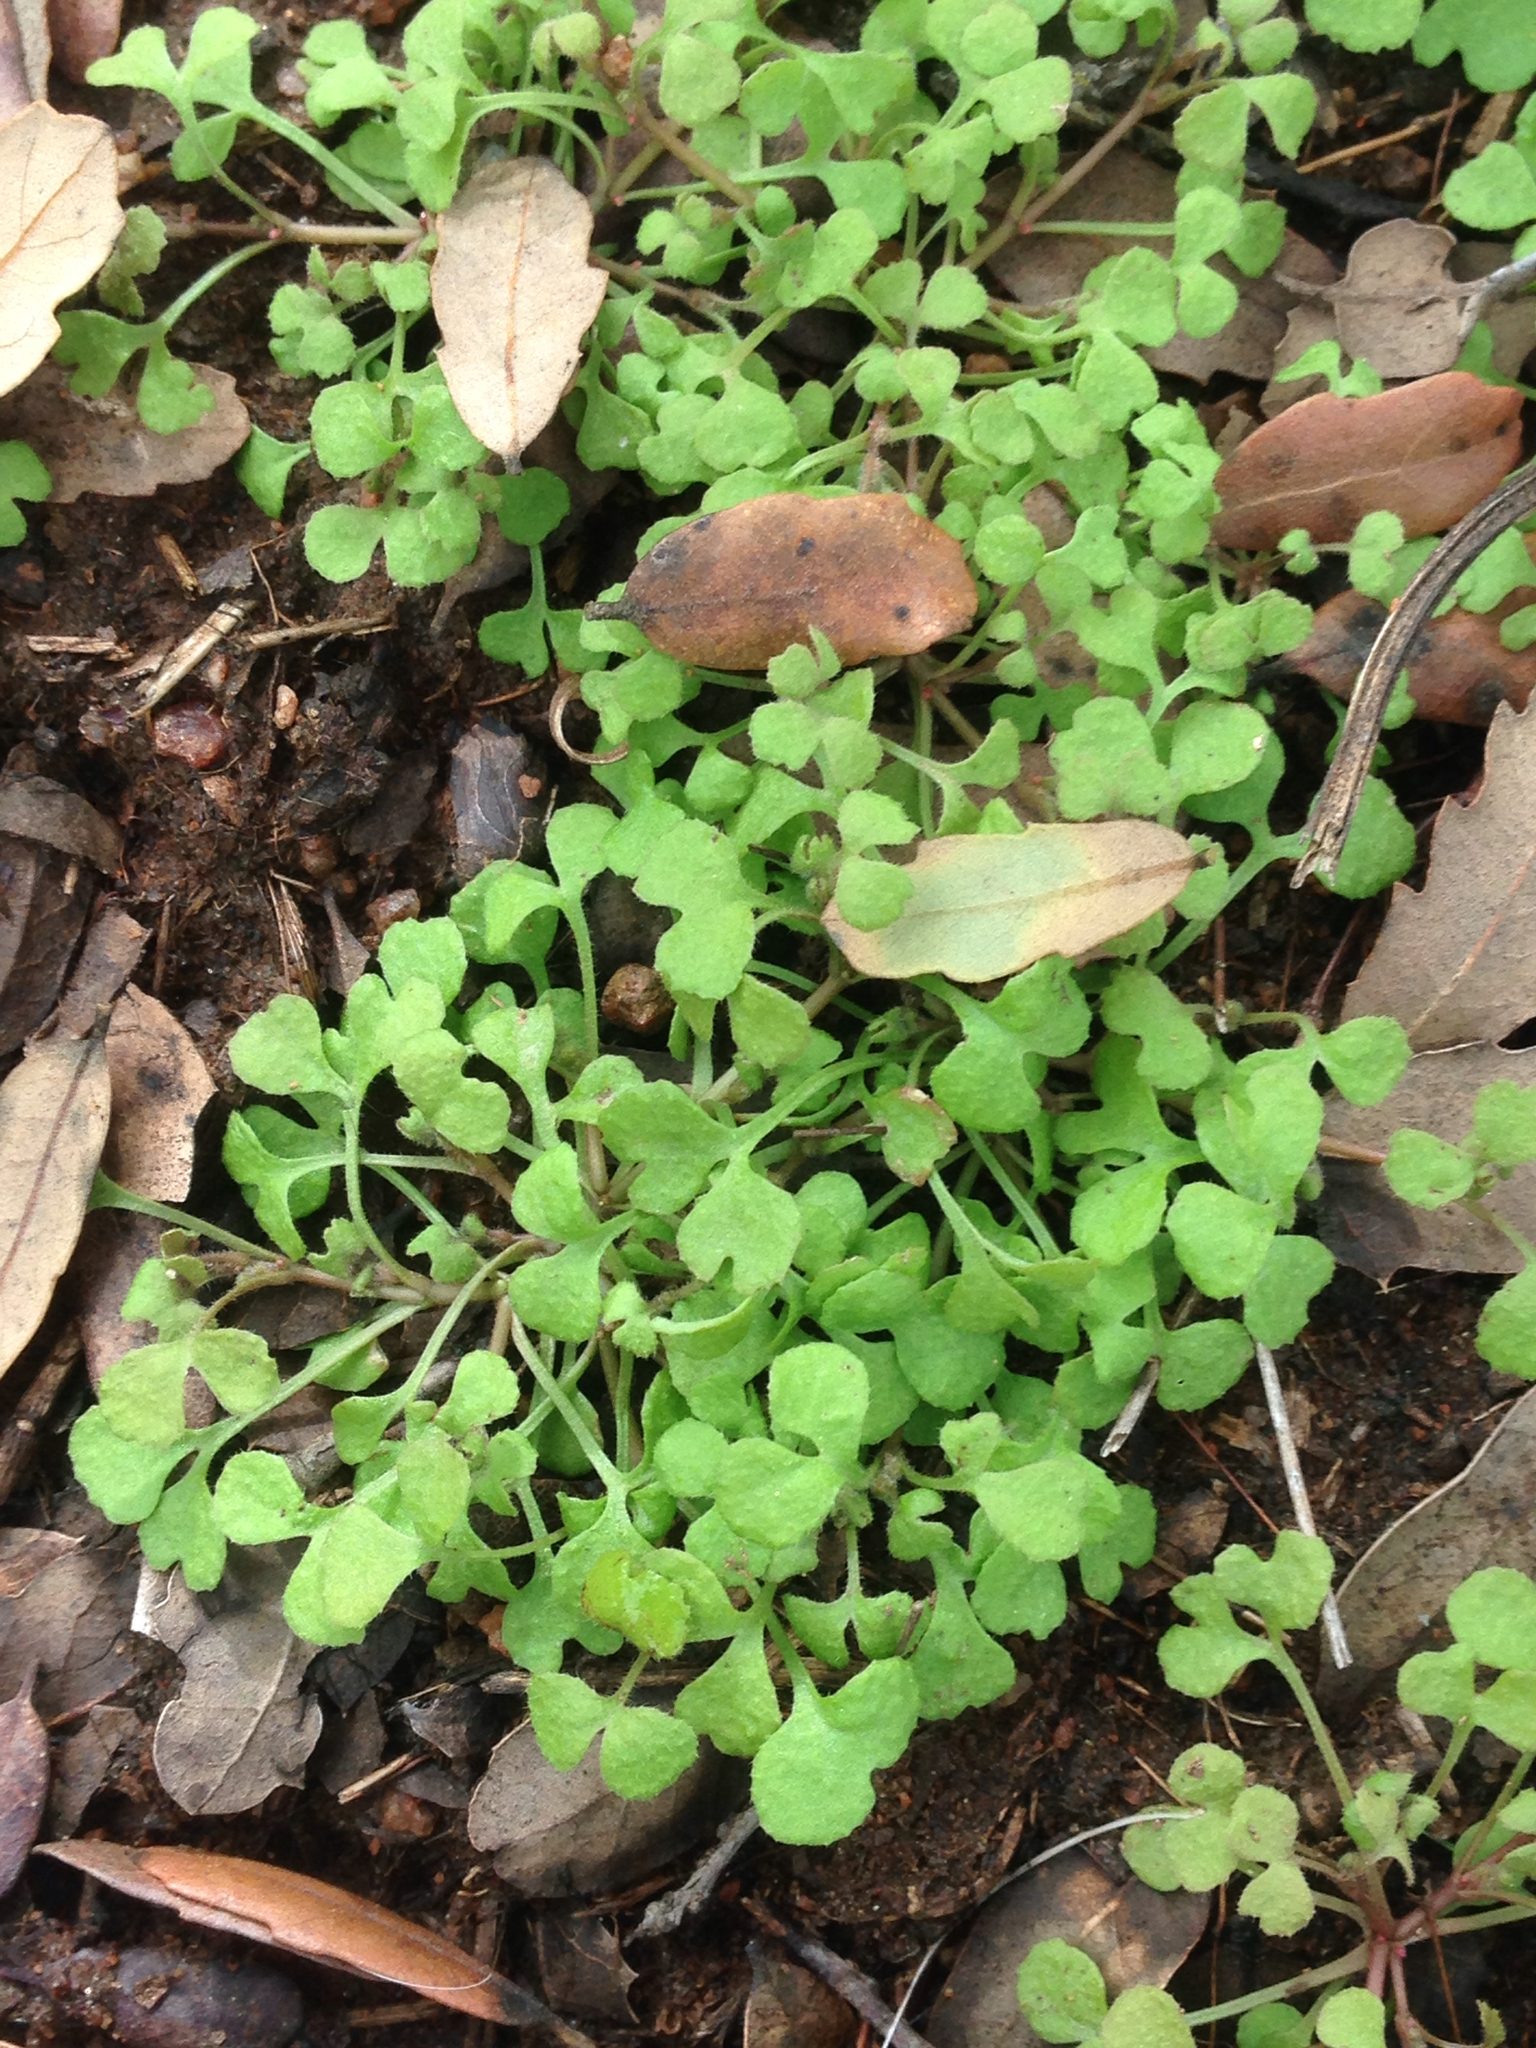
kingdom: Plantae
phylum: Tracheophyta
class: Magnoliopsida
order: Caryophyllales
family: Polygonaceae
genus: Pterostegia
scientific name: Pterostegia drymarioides
